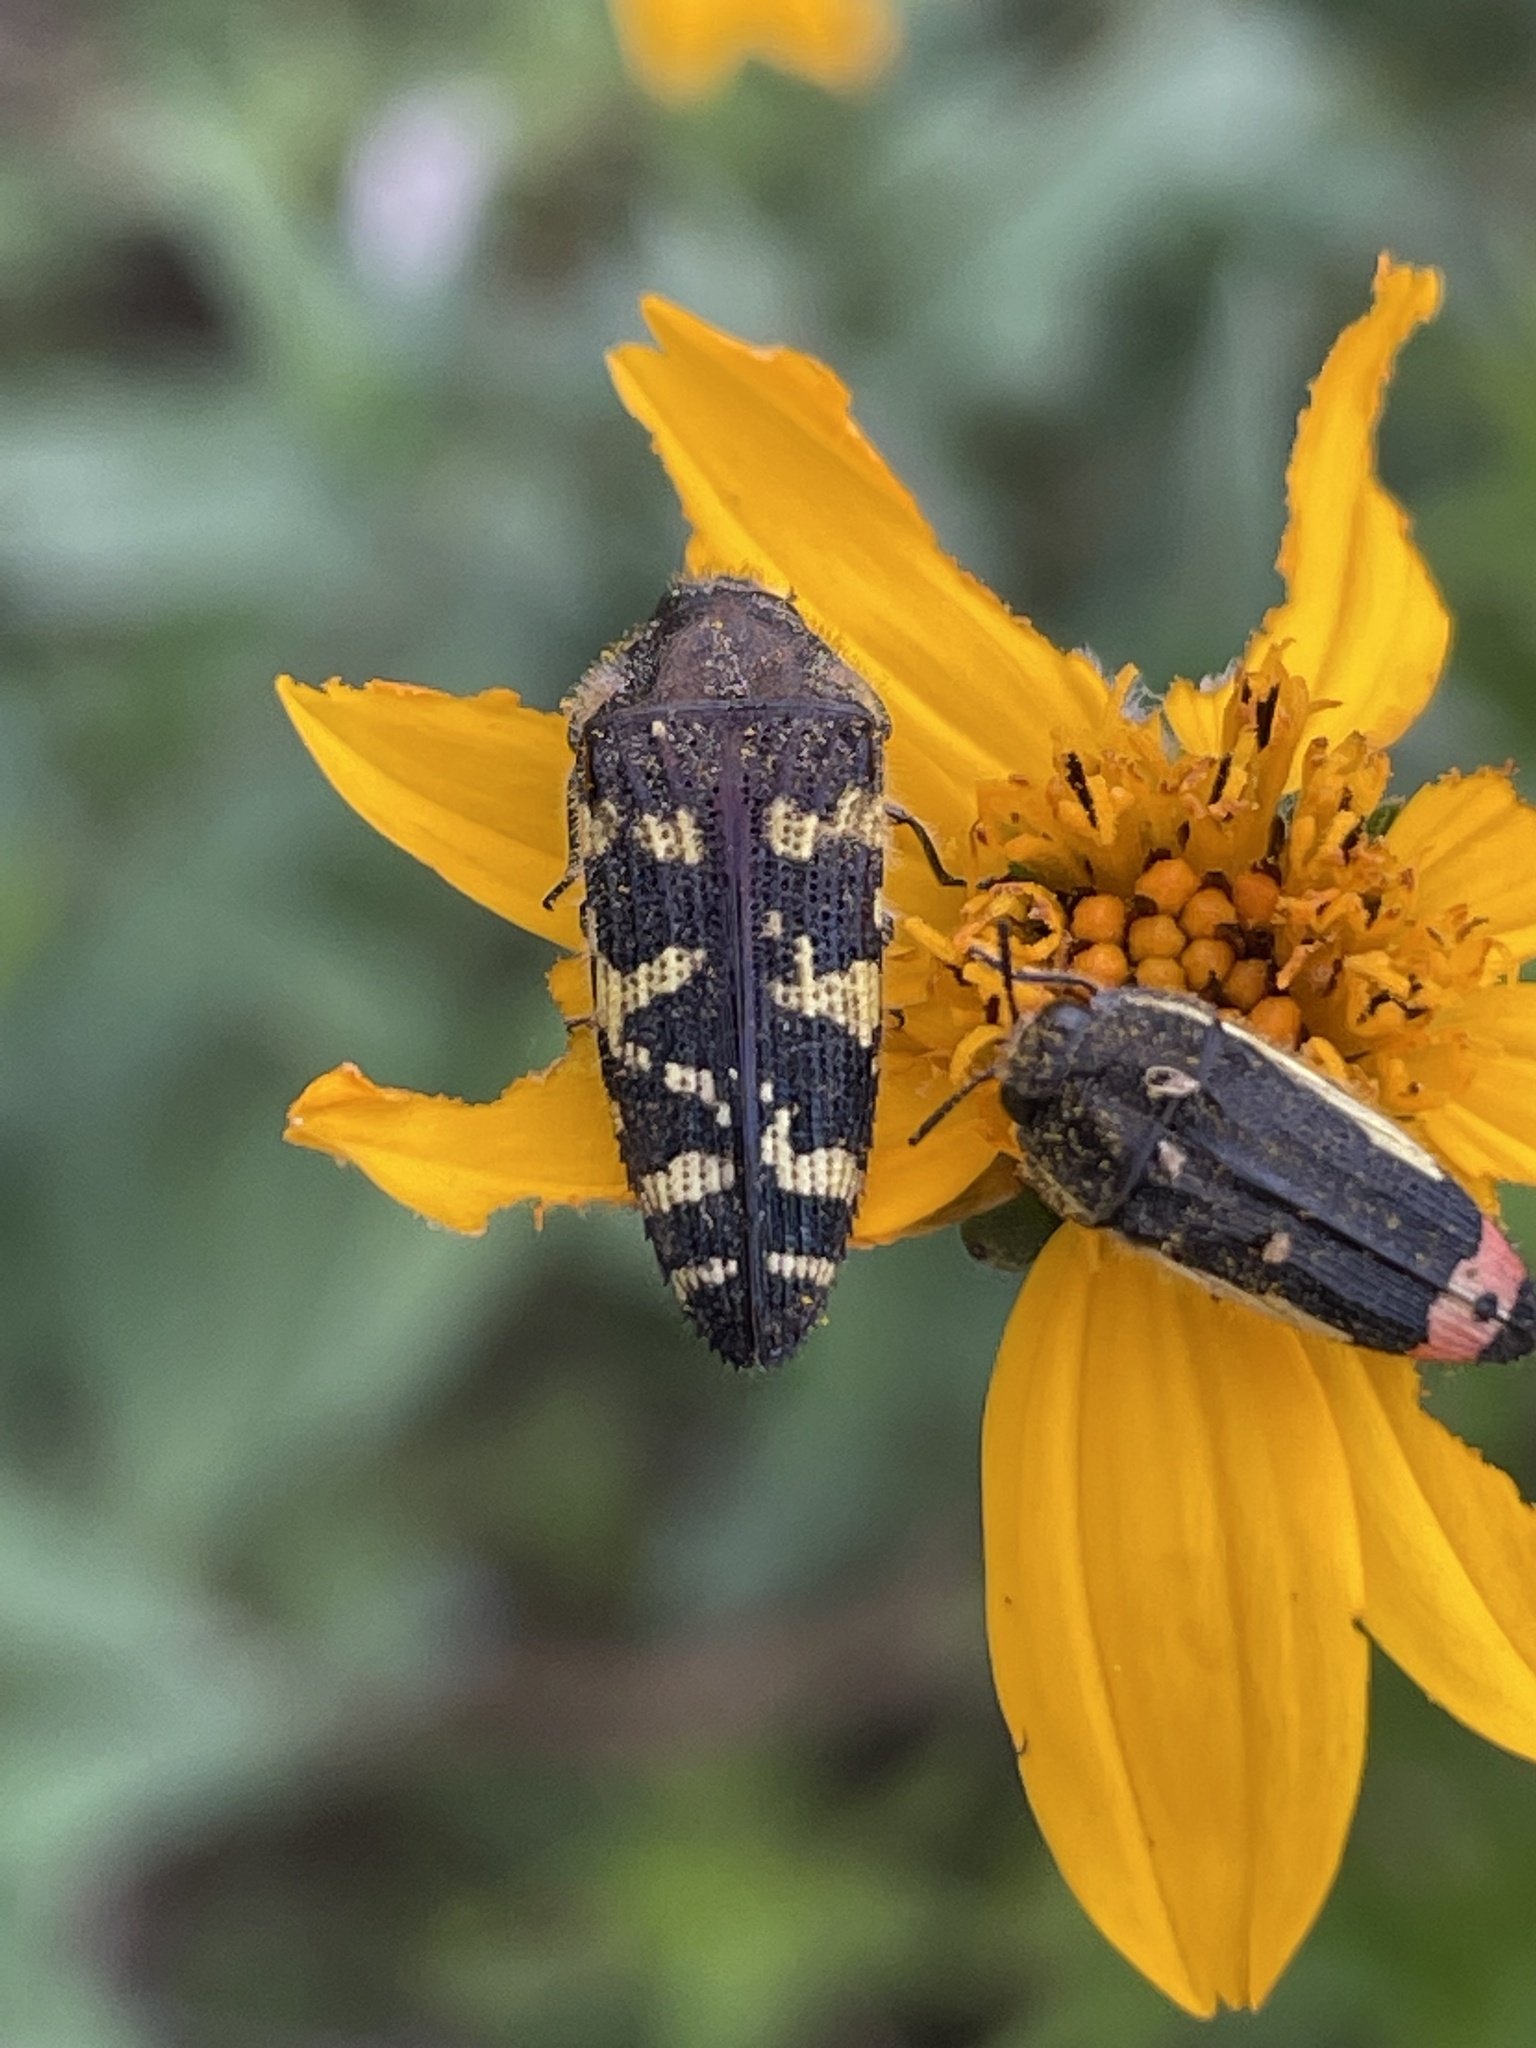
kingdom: Animalia
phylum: Arthropoda
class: Insecta
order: Coleoptera
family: Buprestidae
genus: Acmaeodera
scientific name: Acmaeodera macra
